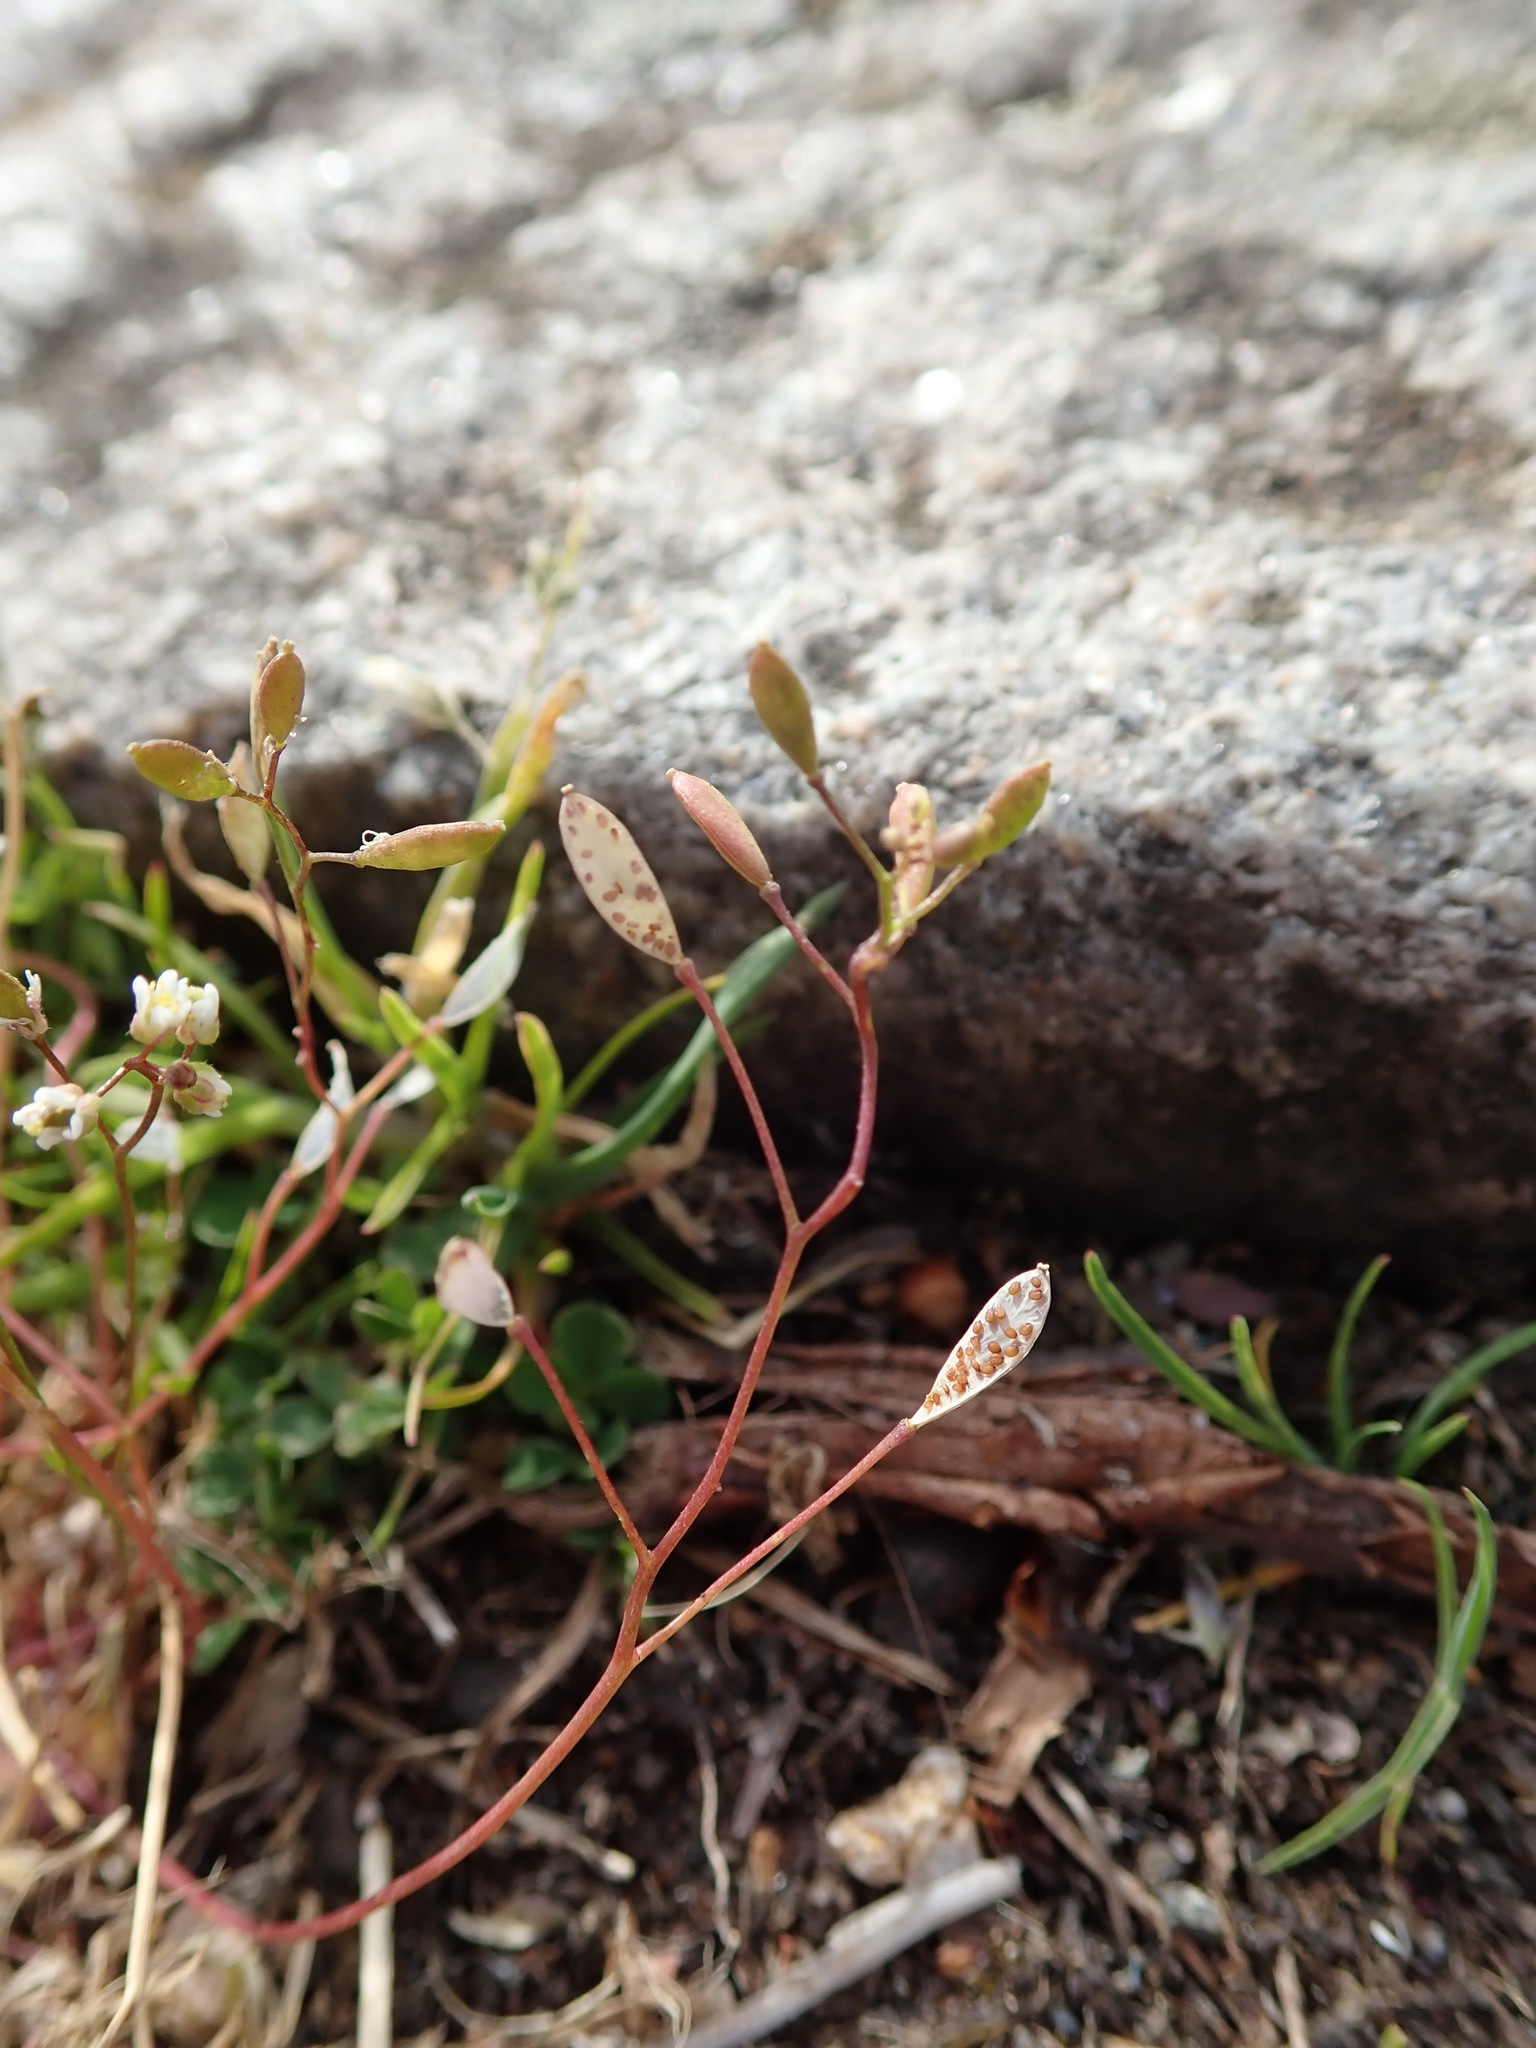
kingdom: Plantae
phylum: Tracheophyta
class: Magnoliopsida
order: Brassicales
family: Brassicaceae
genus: Draba
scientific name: Draba verna
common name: Spring draba
